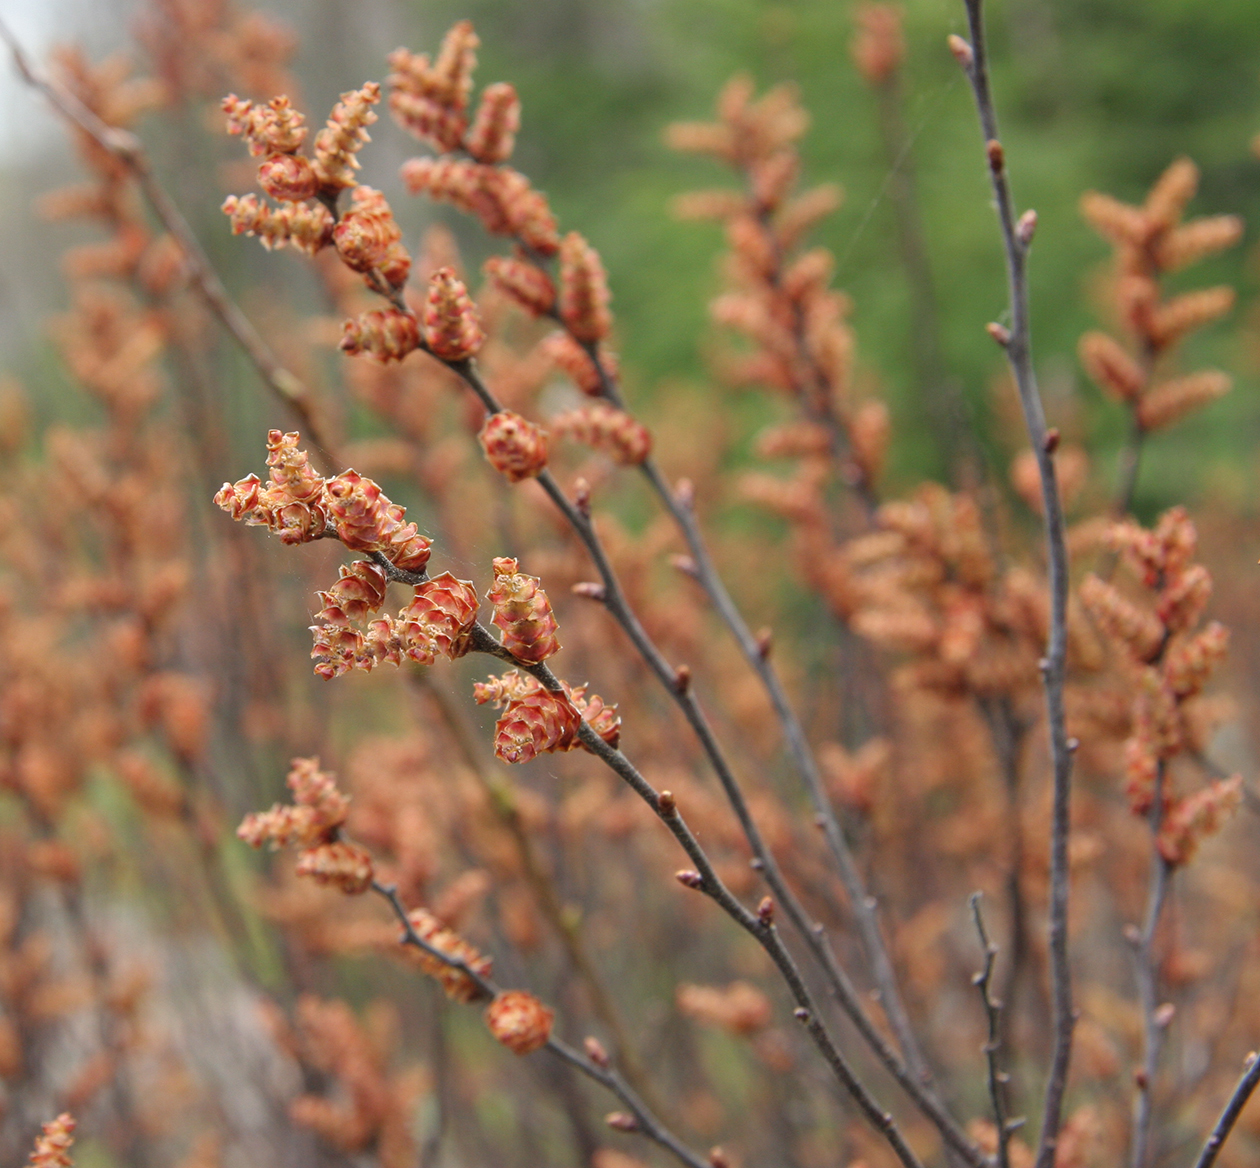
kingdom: Plantae
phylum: Tracheophyta
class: Magnoliopsida
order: Fagales
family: Myricaceae
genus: Myrica
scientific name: Myrica gale
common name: Sweet gale
